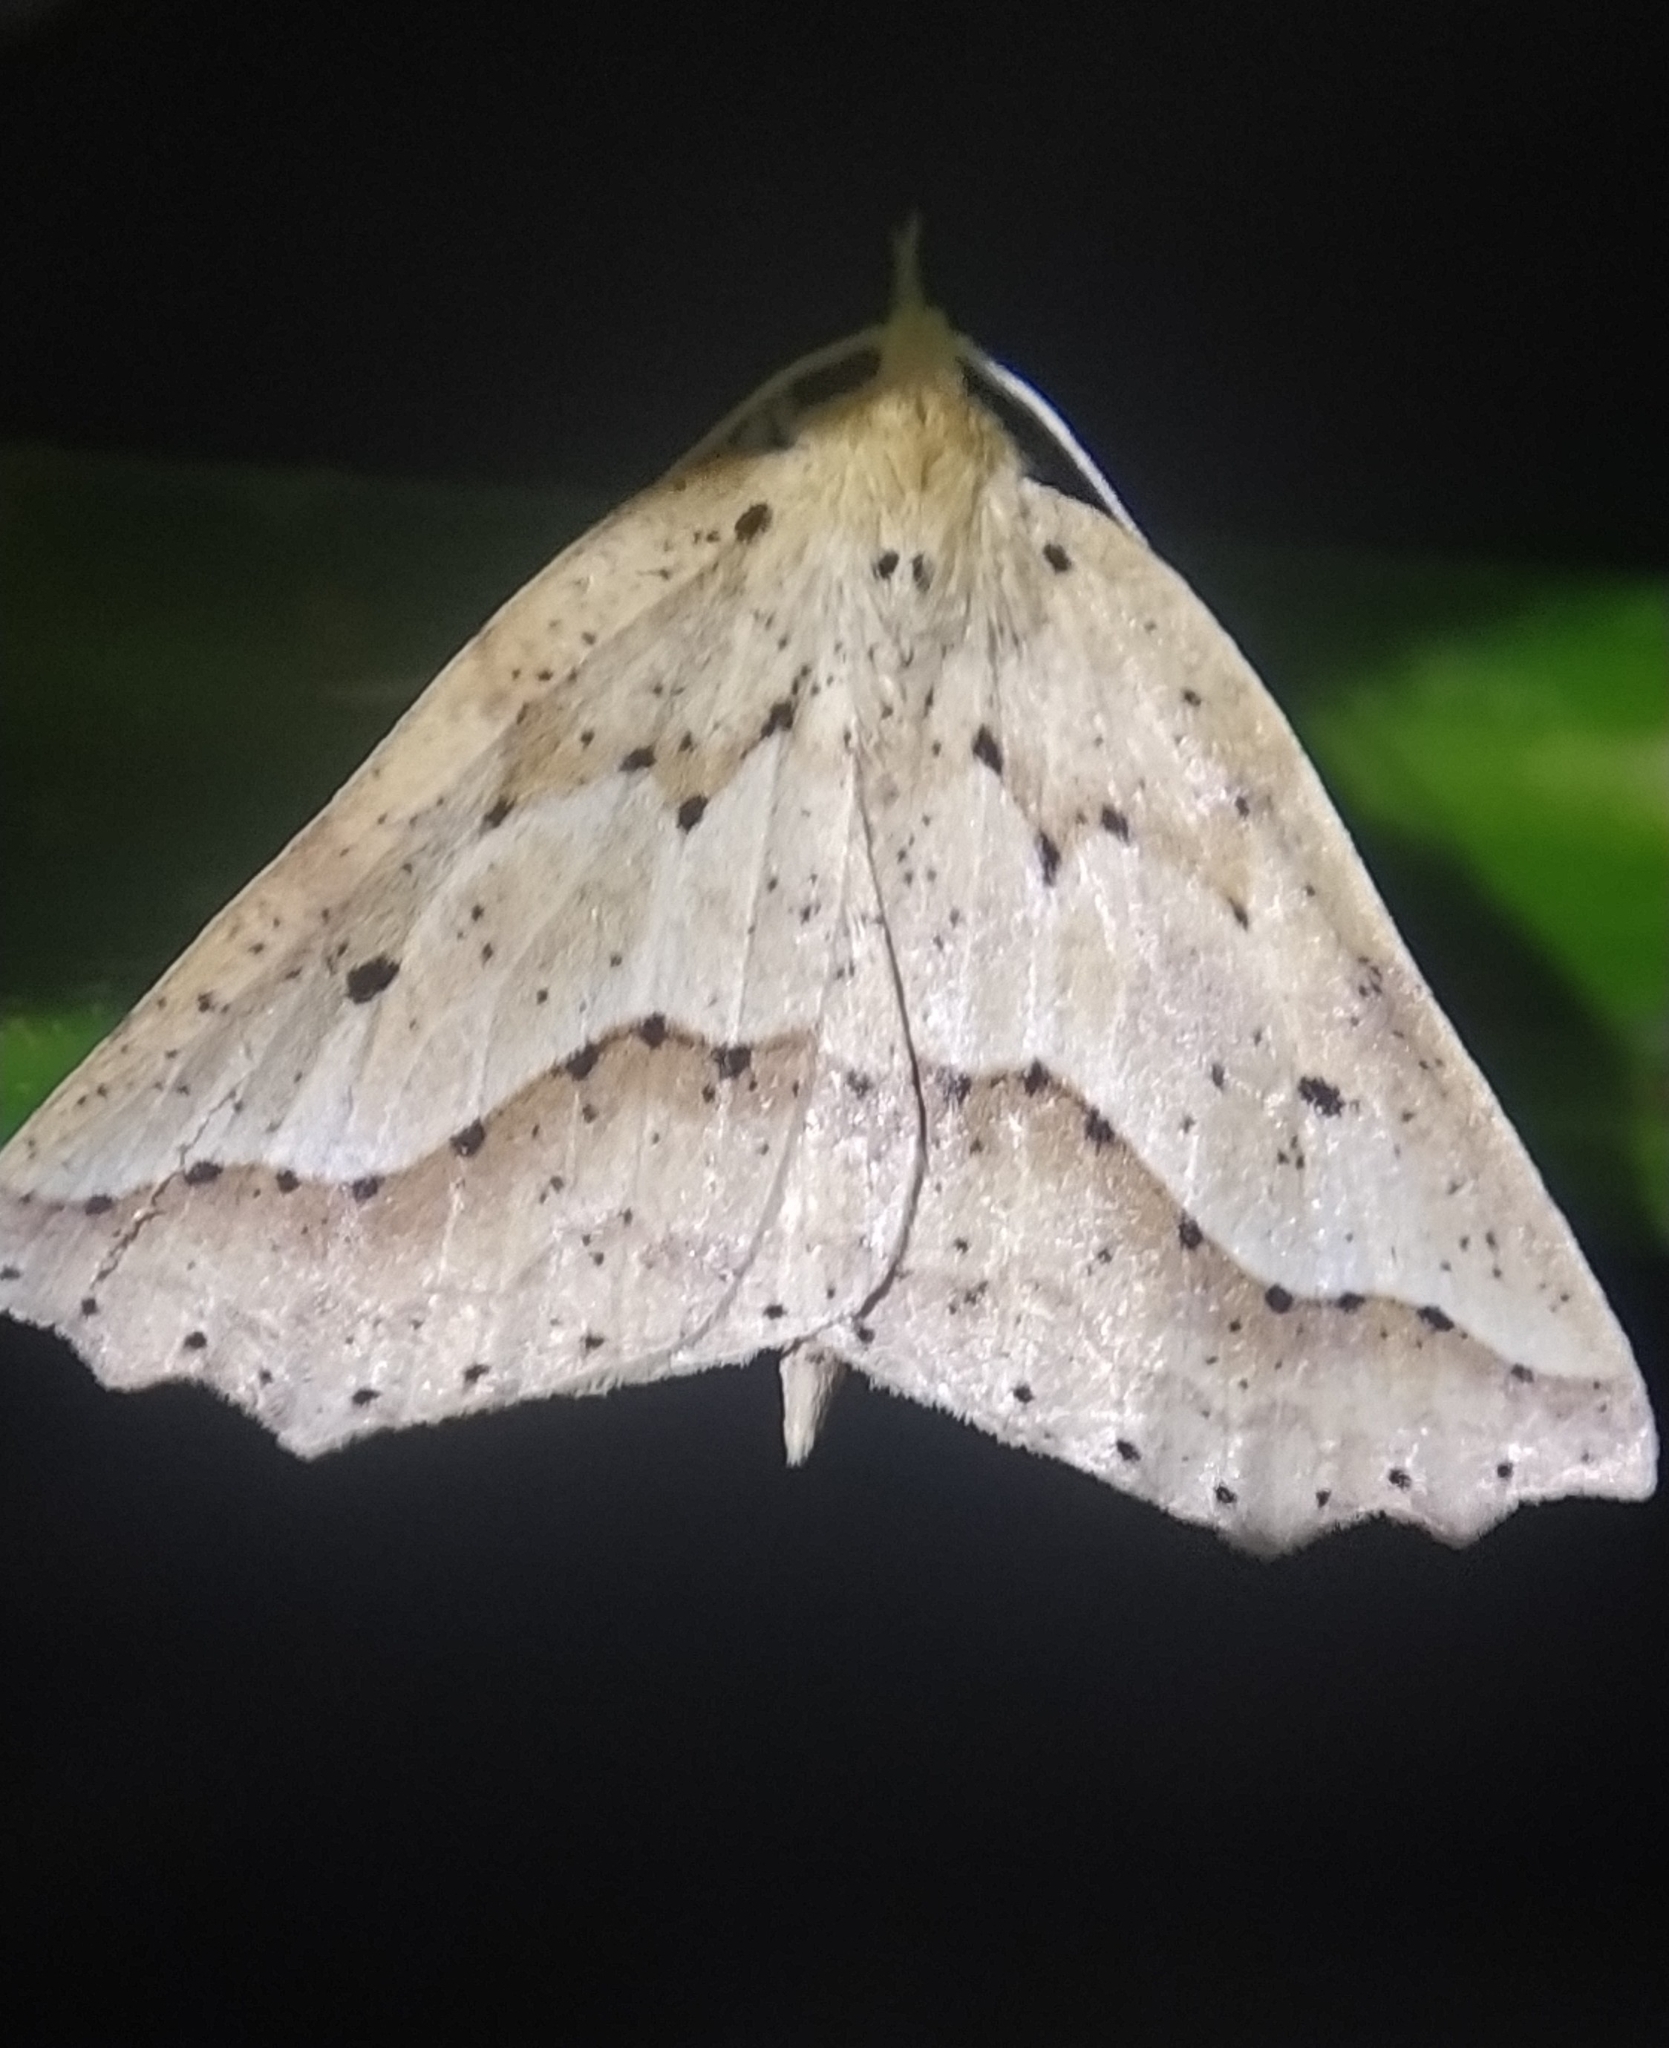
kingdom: Animalia
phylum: Arthropoda
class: Insecta
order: Lepidoptera
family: Geometridae
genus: Ischalis
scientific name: Ischalis variabilis
